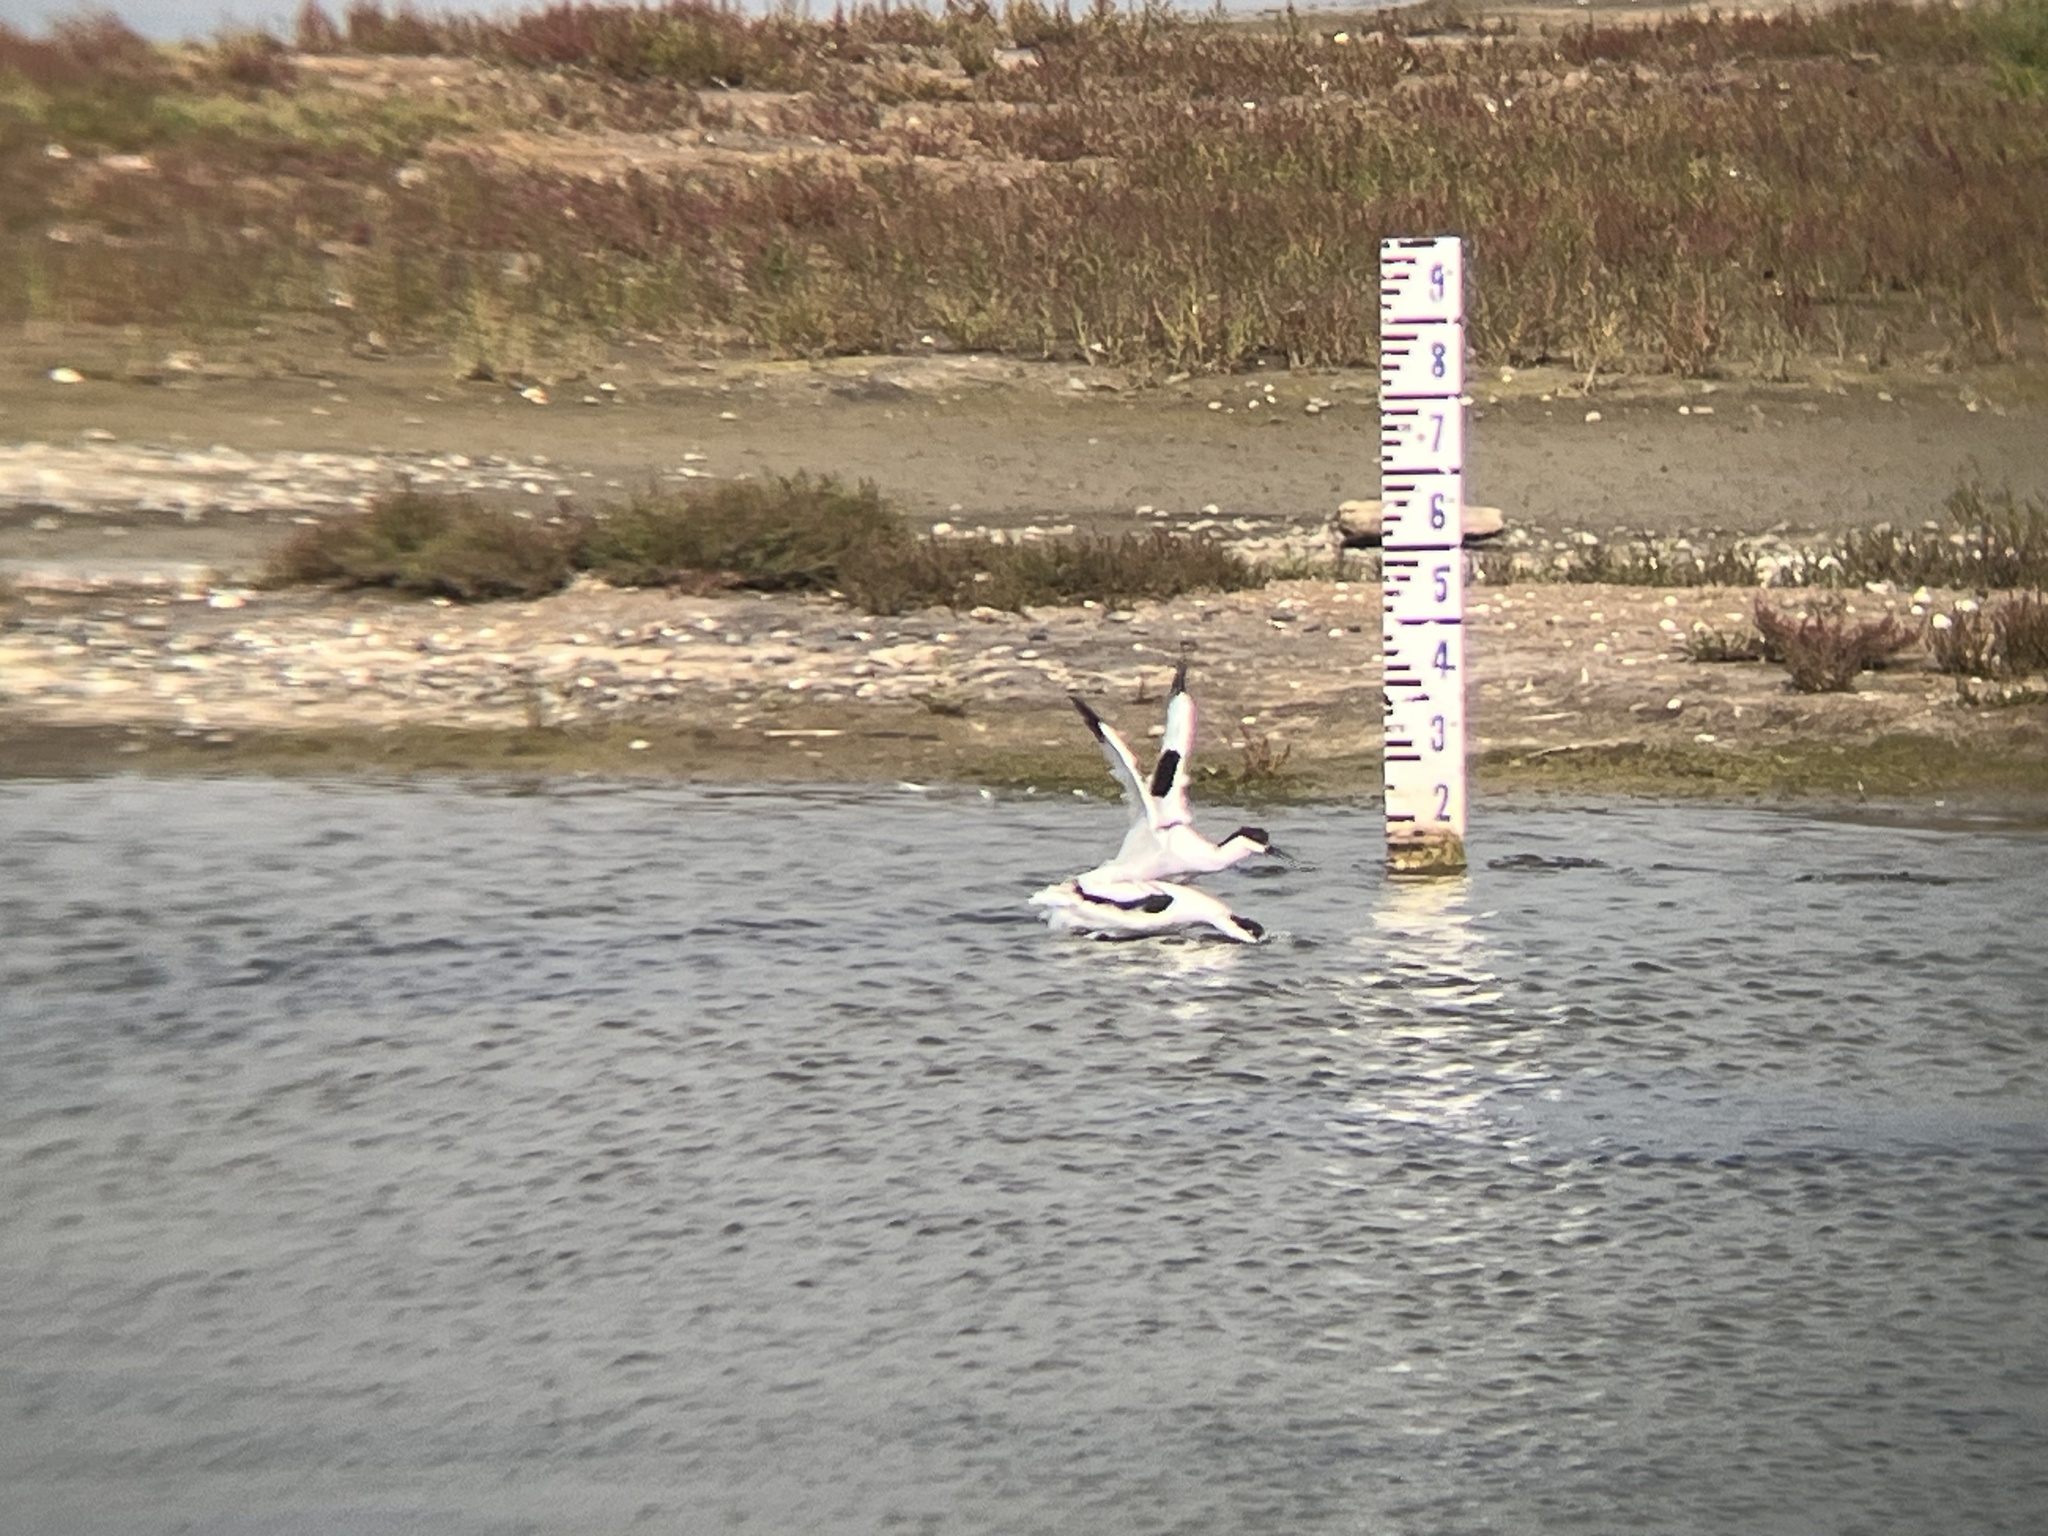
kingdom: Animalia
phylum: Chordata
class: Aves
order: Charadriiformes
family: Recurvirostridae
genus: Recurvirostra
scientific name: Recurvirostra avosetta
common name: Pied avocet
